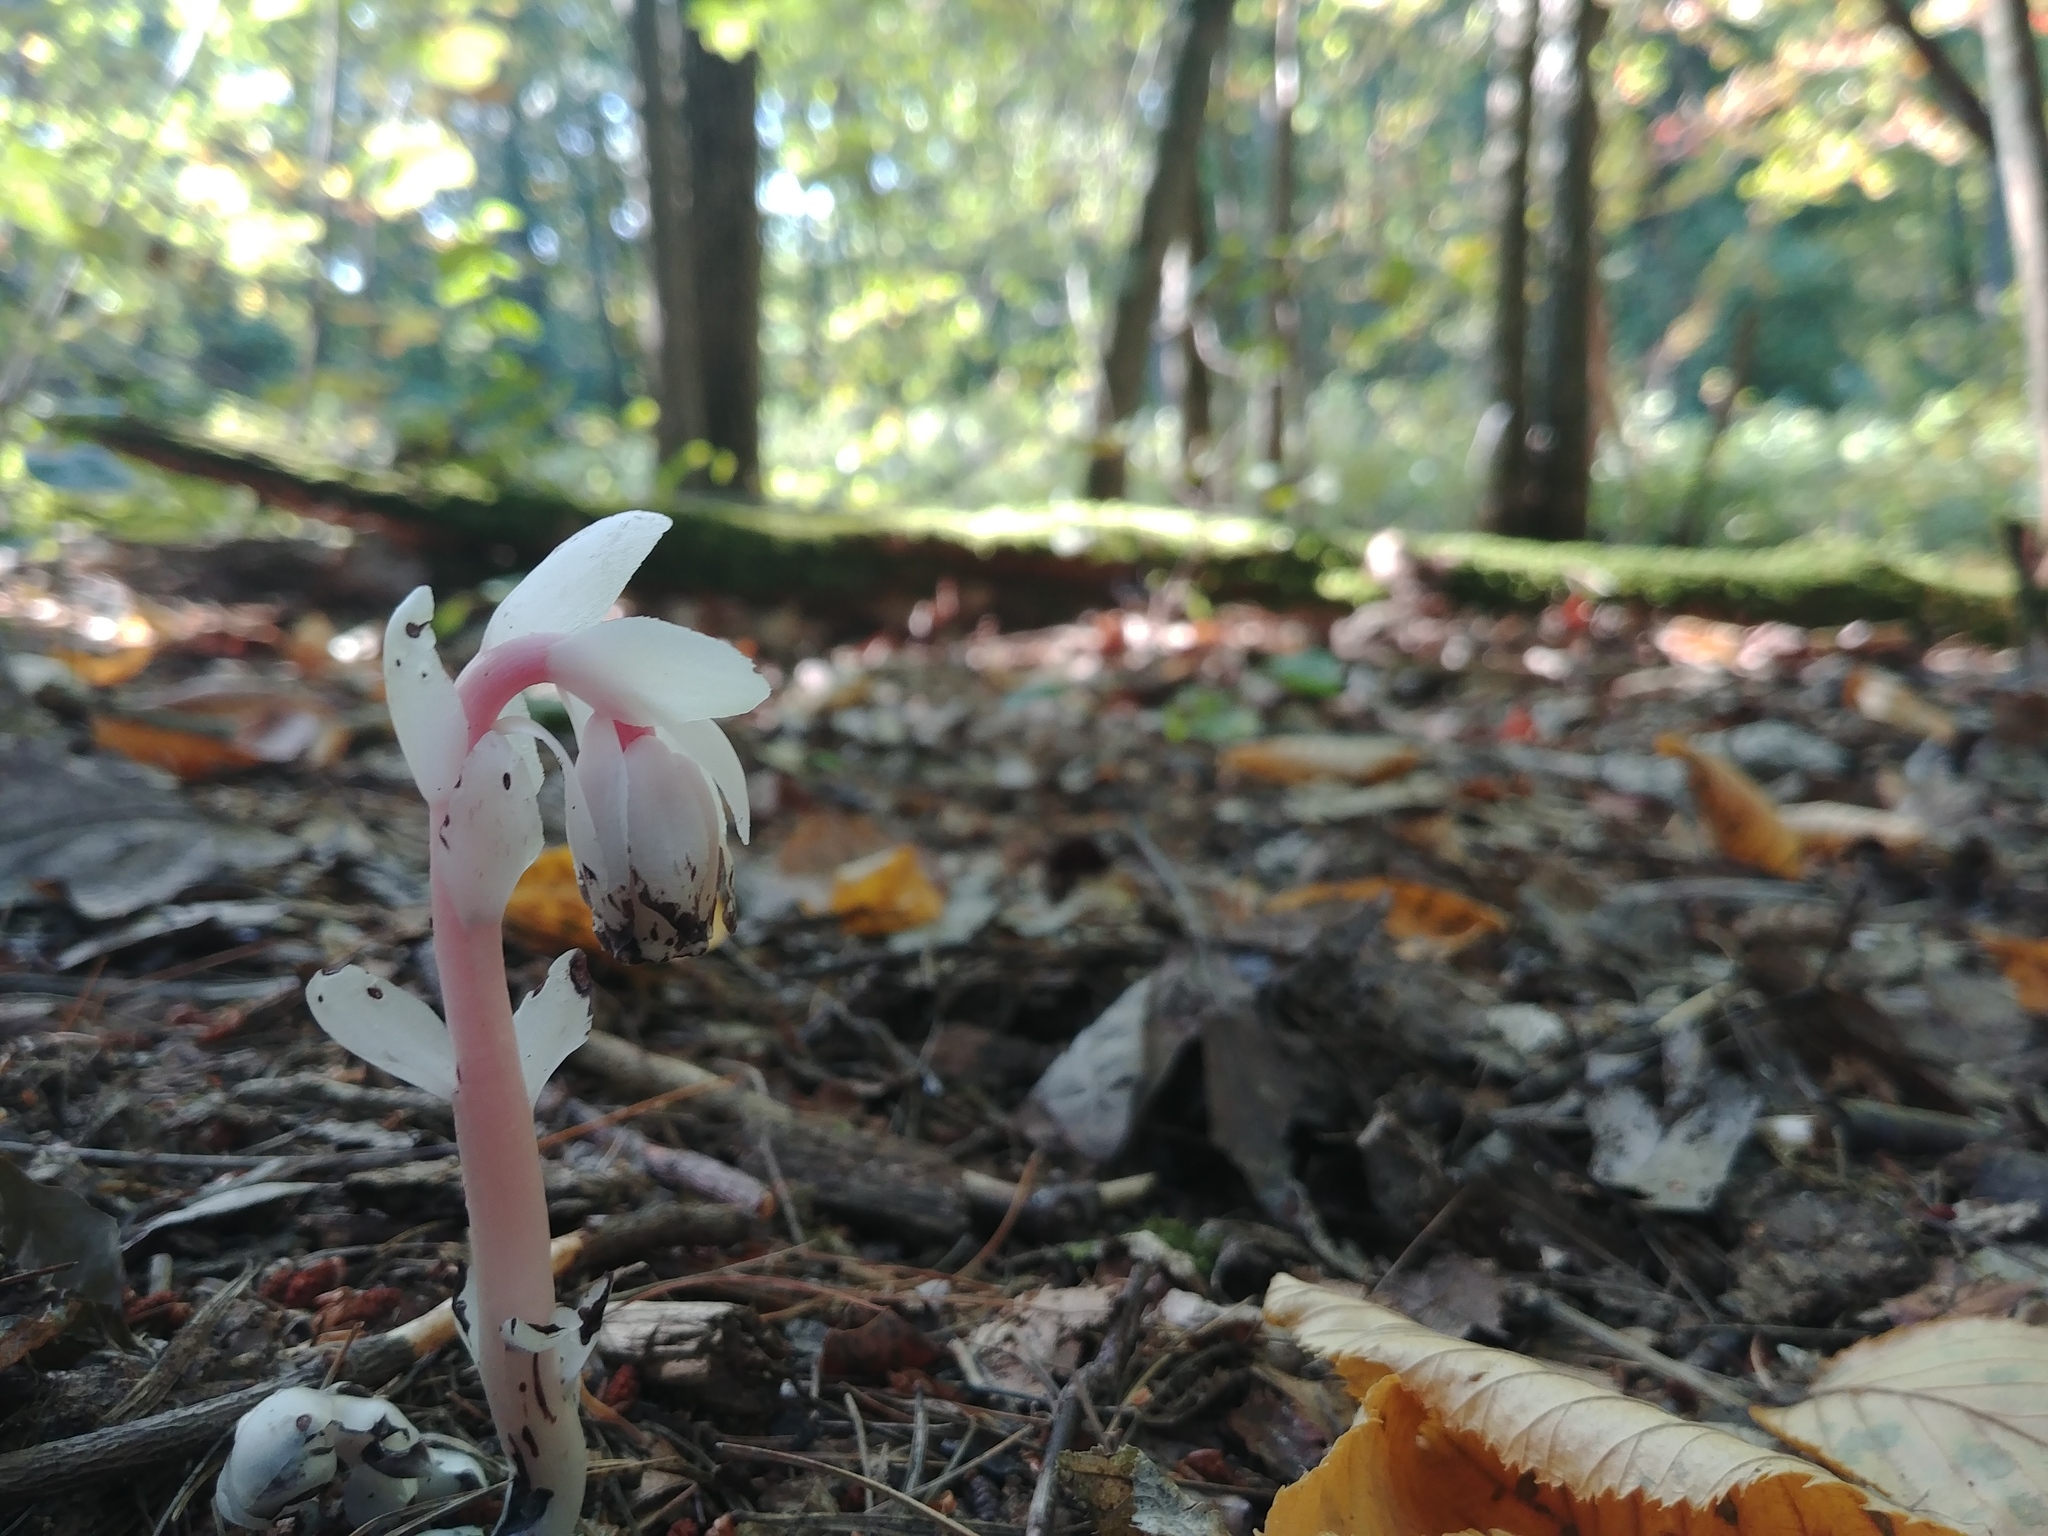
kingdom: Plantae
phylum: Tracheophyta
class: Magnoliopsida
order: Ericales
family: Ericaceae
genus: Monotropa
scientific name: Monotropa uniflora
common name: Convulsion root
